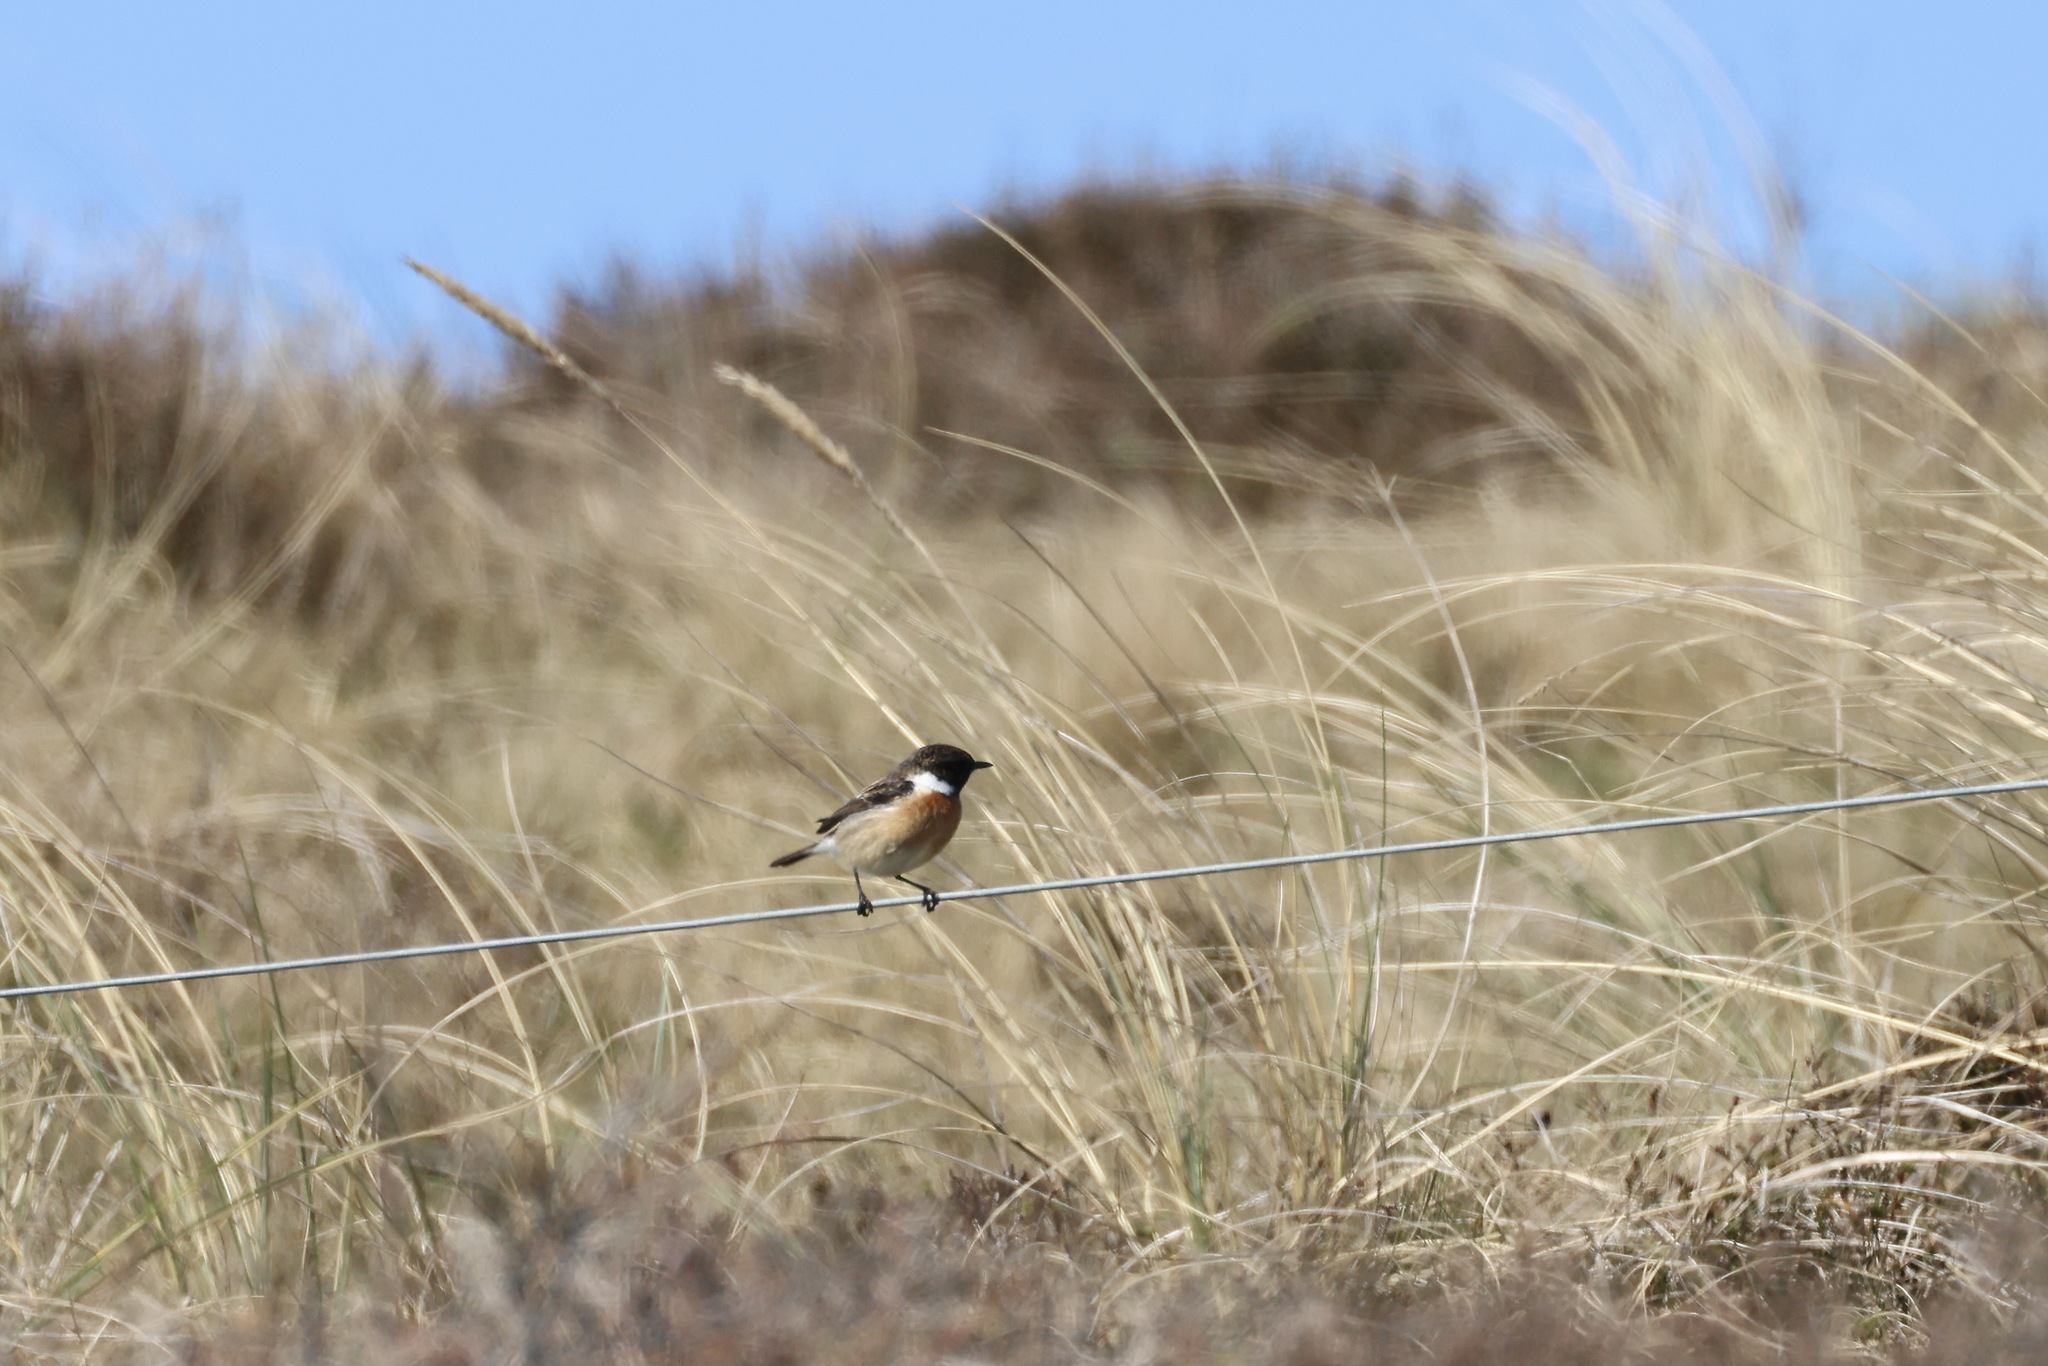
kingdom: Animalia
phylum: Chordata
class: Aves
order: Passeriformes
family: Muscicapidae
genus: Saxicola
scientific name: Saxicola rubicola
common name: European stonechat
